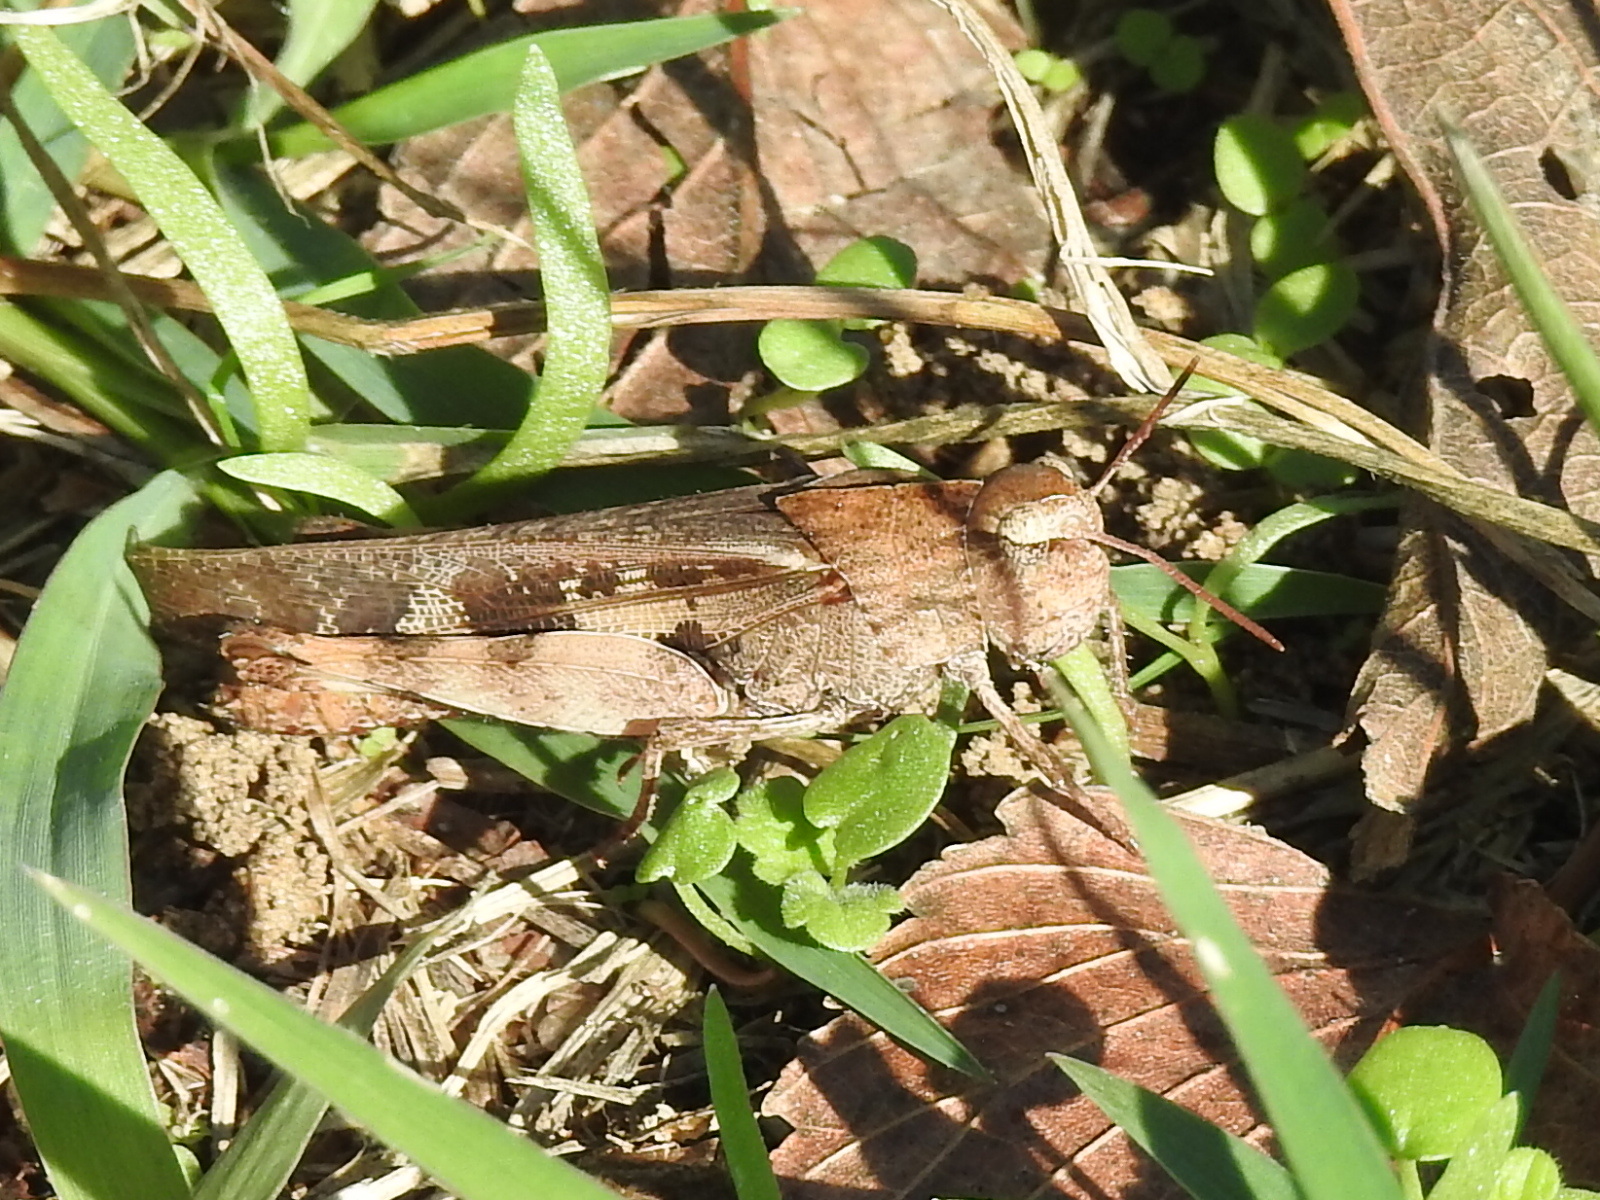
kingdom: Animalia
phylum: Arthropoda
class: Insecta
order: Orthoptera
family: Acrididae
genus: Chortophaga
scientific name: Chortophaga viridifasciata
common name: Green-striped grasshopper
